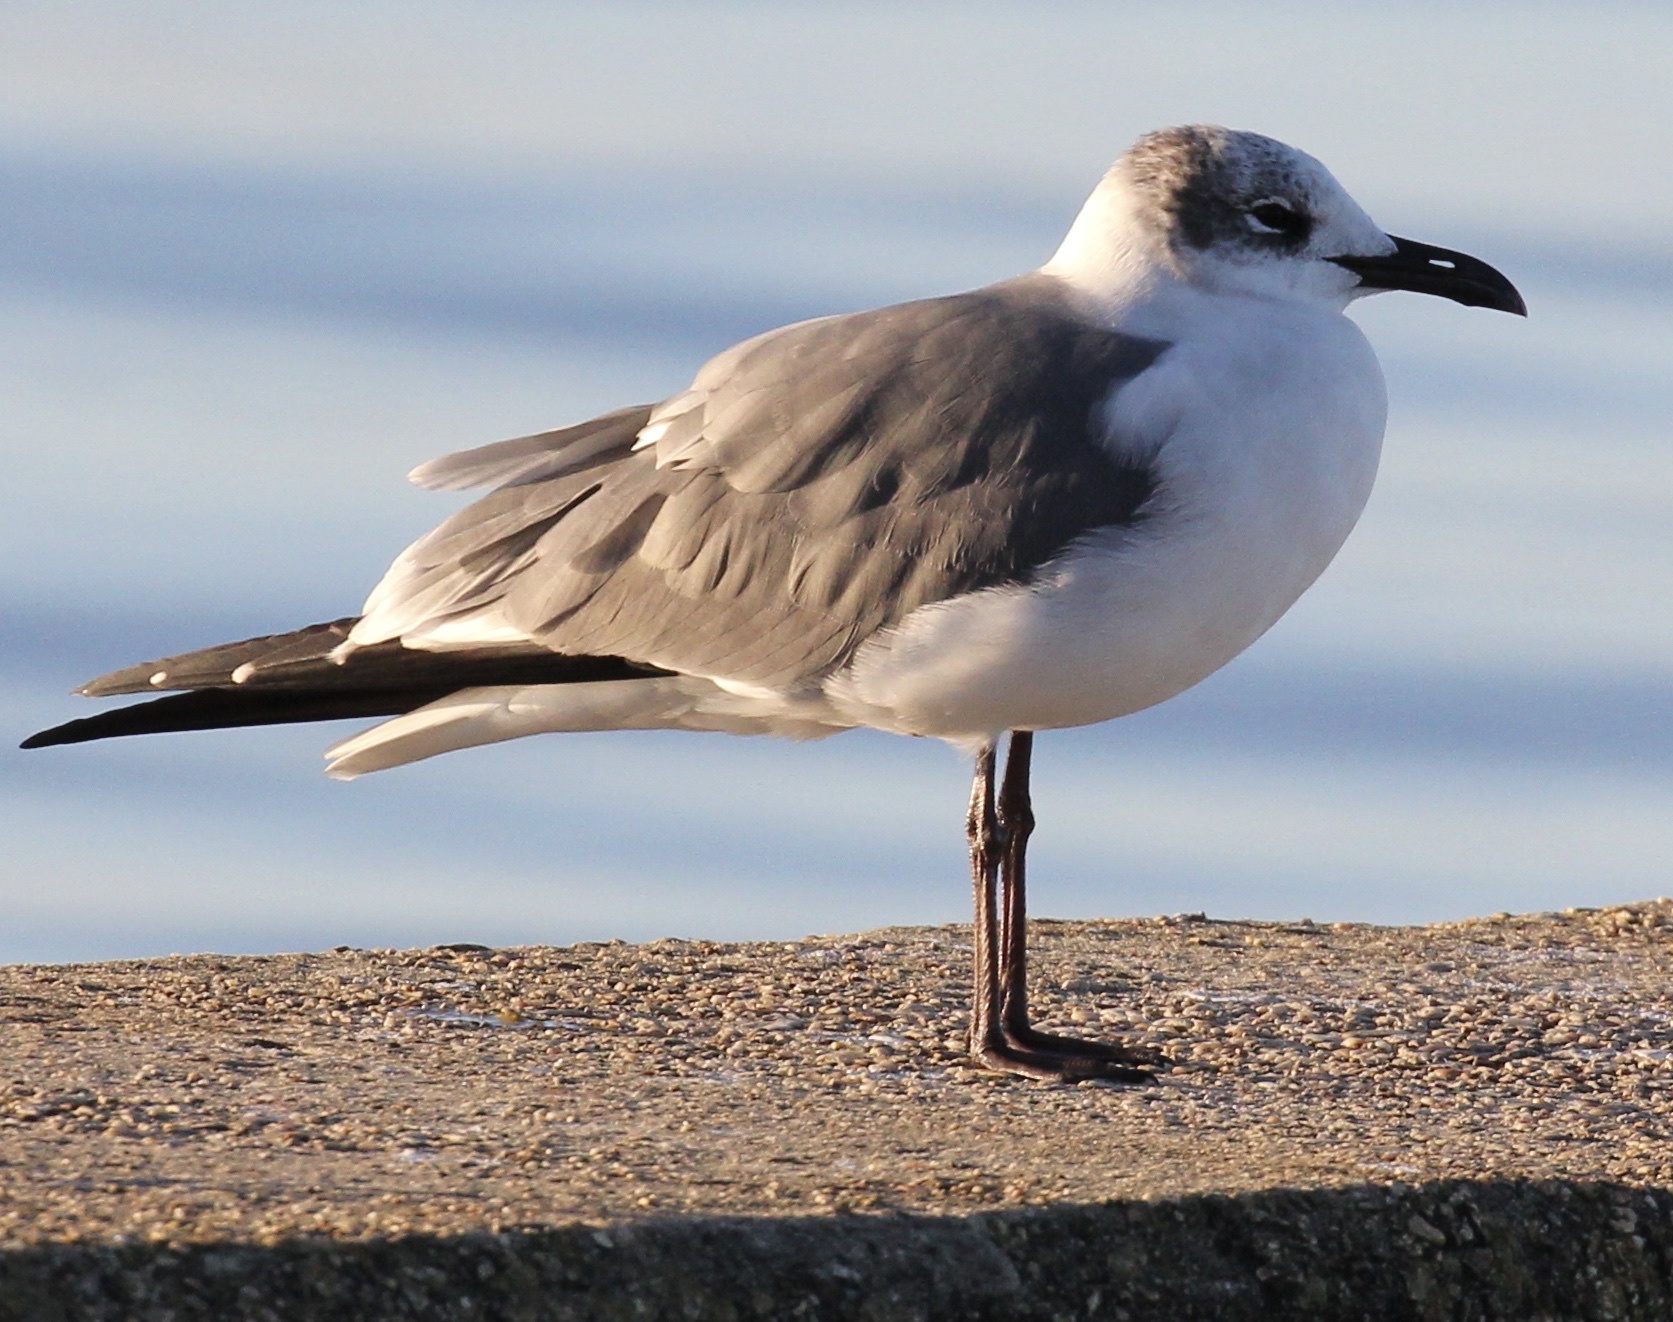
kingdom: Animalia
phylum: Chordata
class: Aves
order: Charadriiformes
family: Laridae
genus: Leucophaeus
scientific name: Leucophaeus atricilla
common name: Laughing gull
